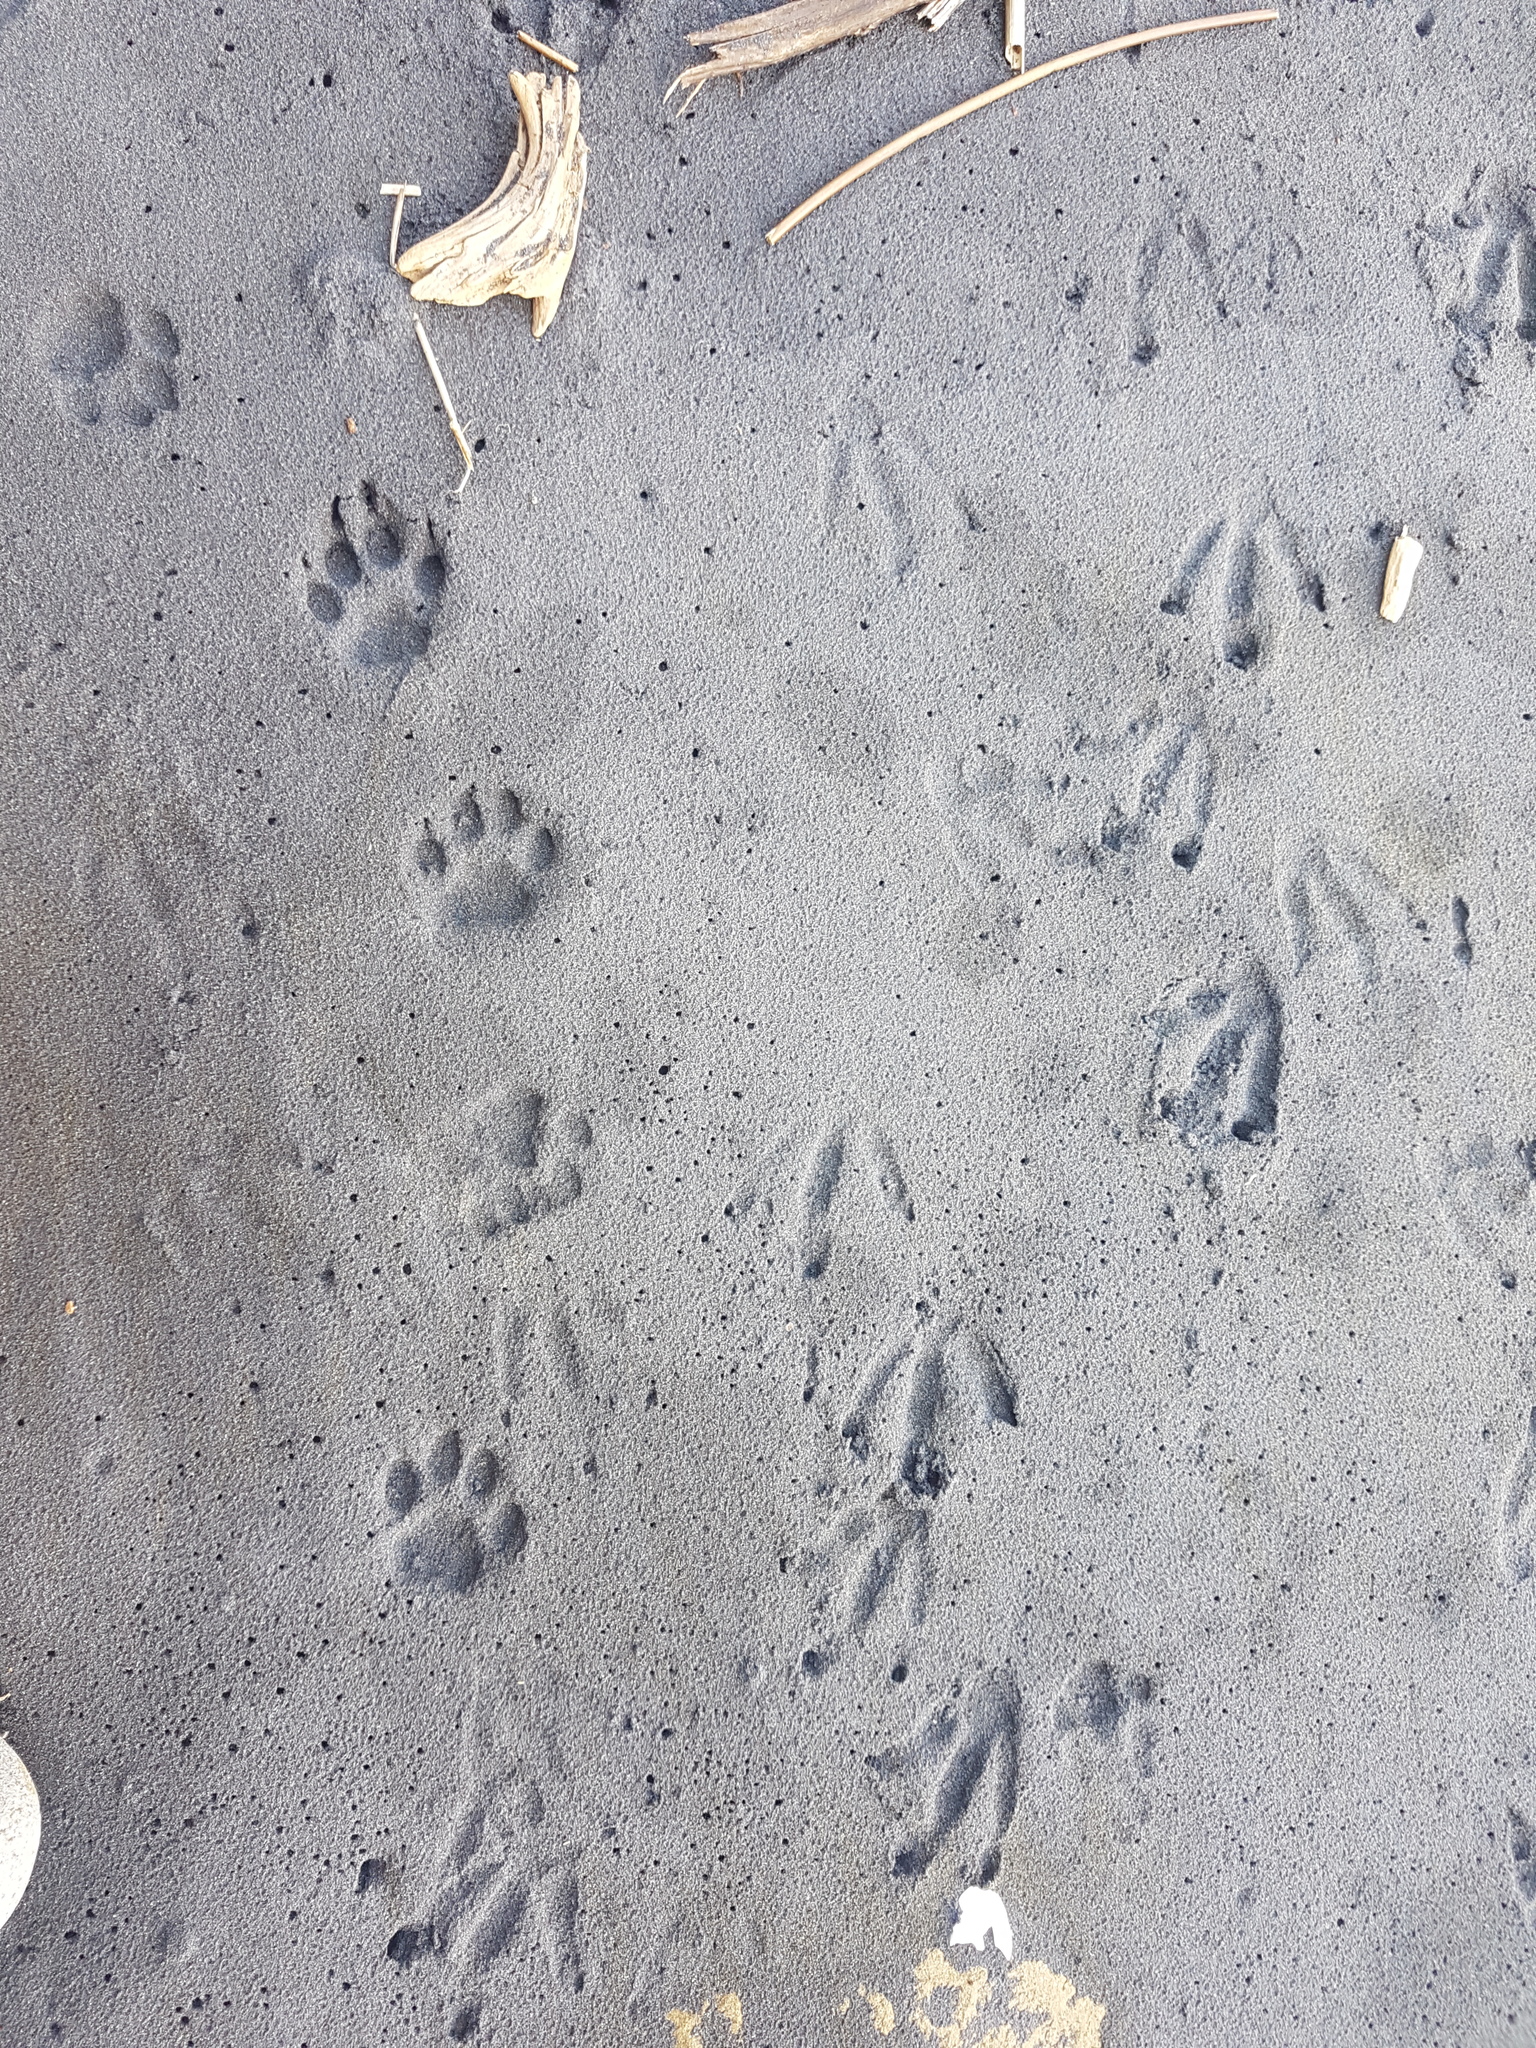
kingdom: Animalia
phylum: Chordata
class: Mammalia
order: Carnivora
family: Felidae
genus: Felis
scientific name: Felis catus
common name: Domestic cat
